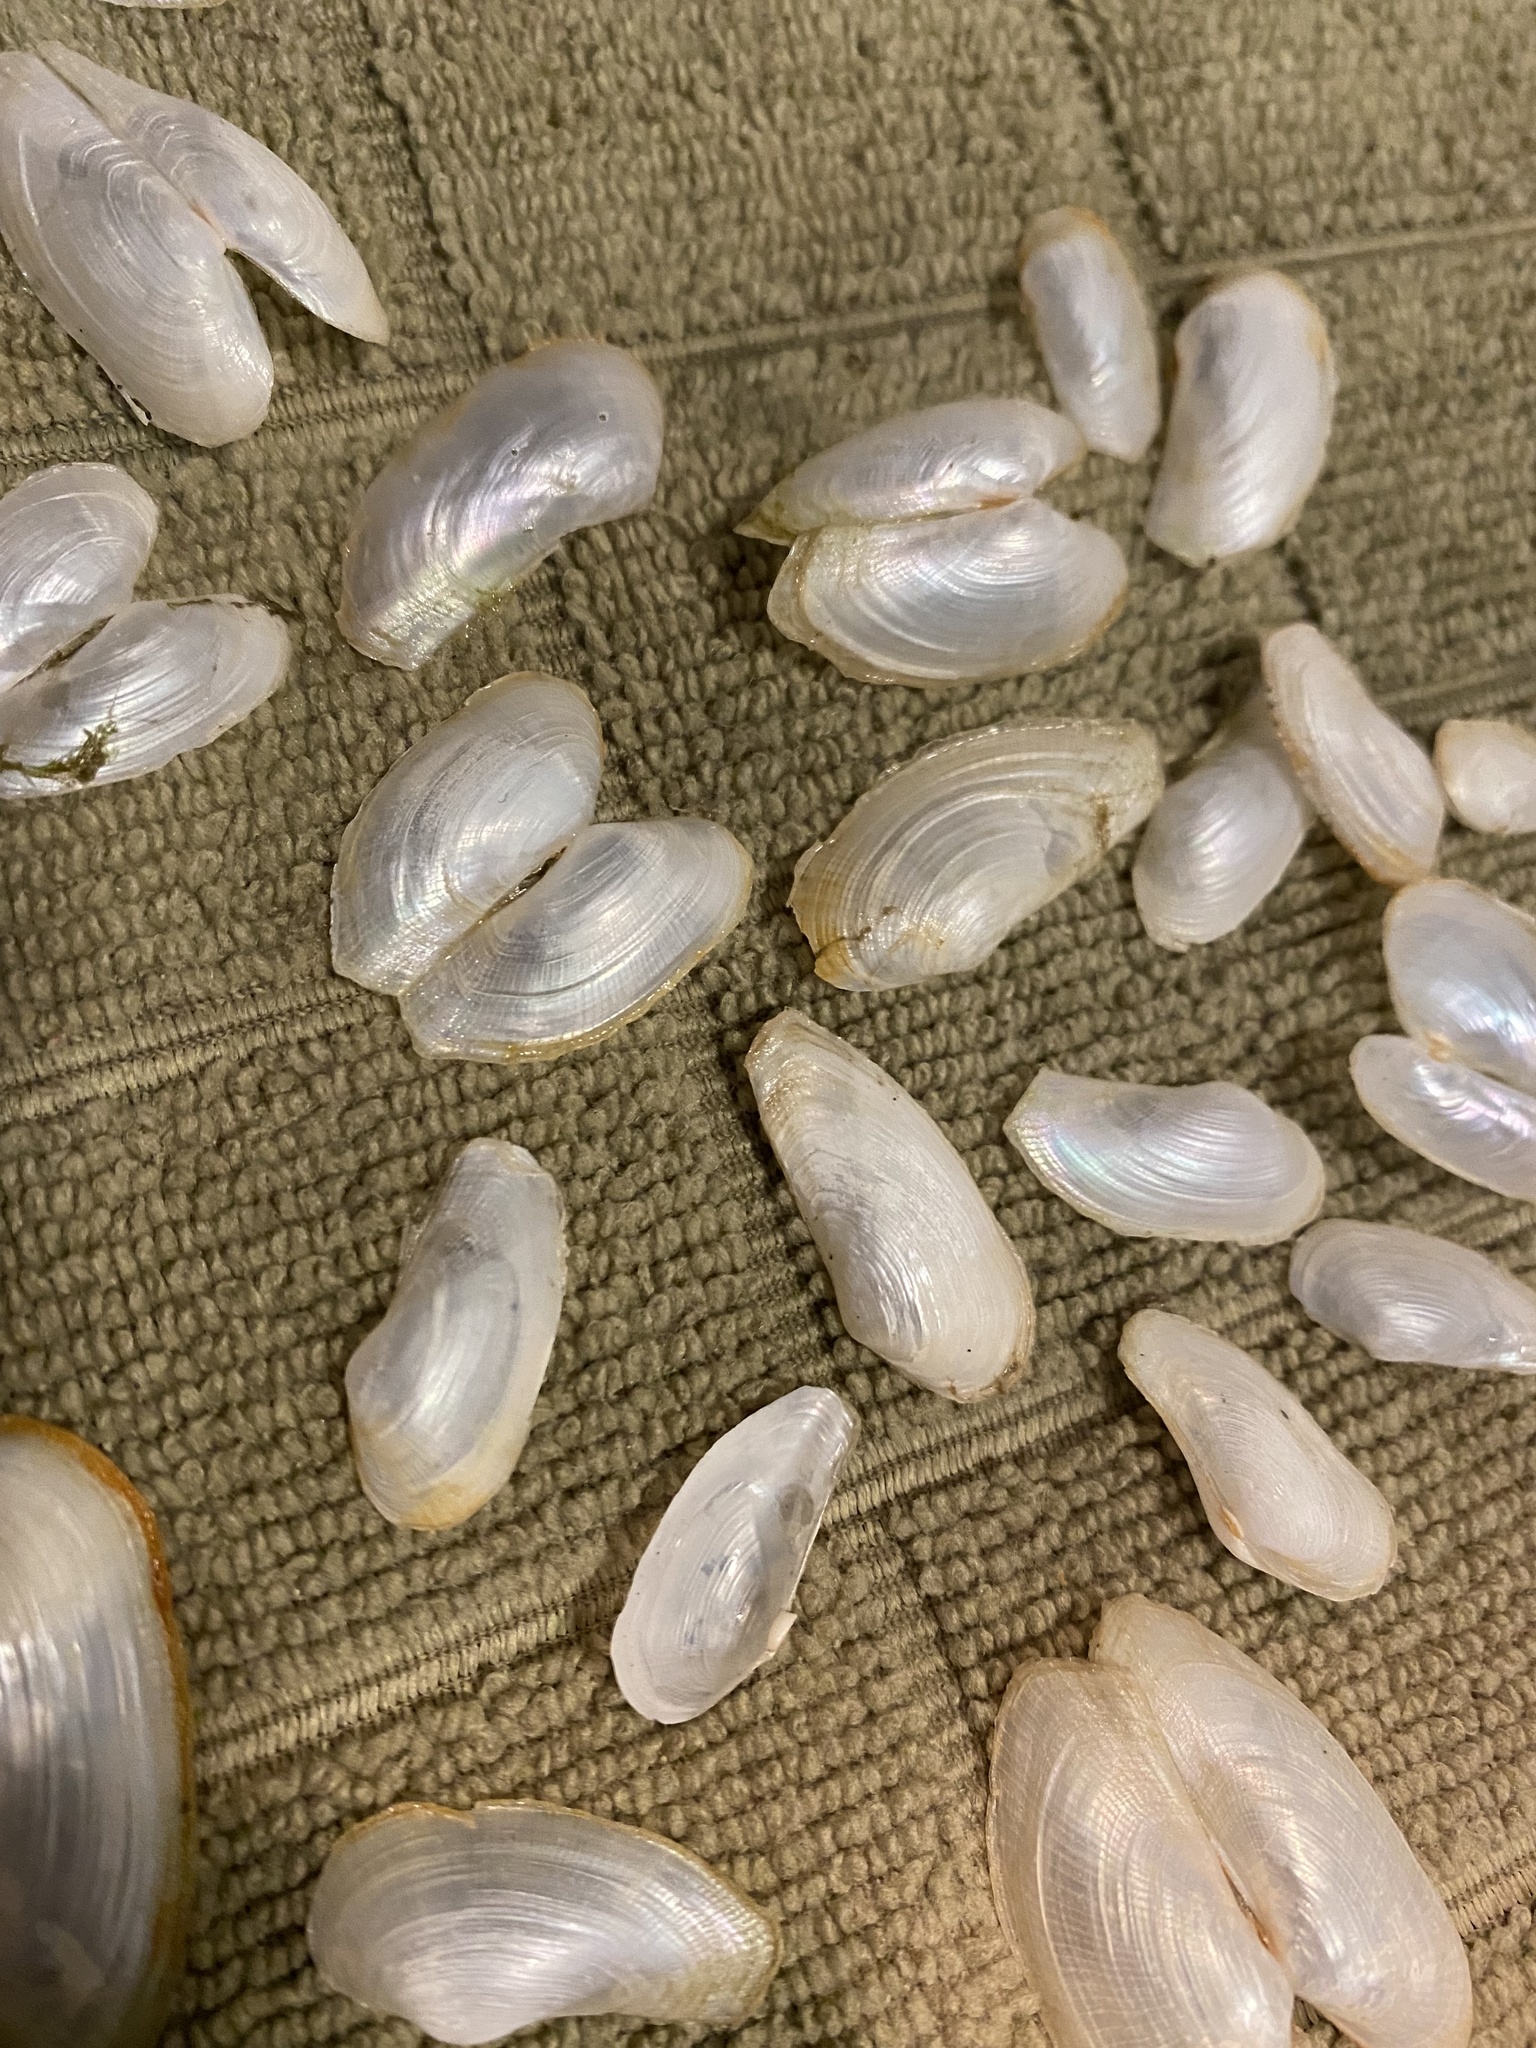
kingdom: Animalia
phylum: Mollusca
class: Bivalvia
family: Lyonsiidae
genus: Lyonsia
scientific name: Lyonsia californica
